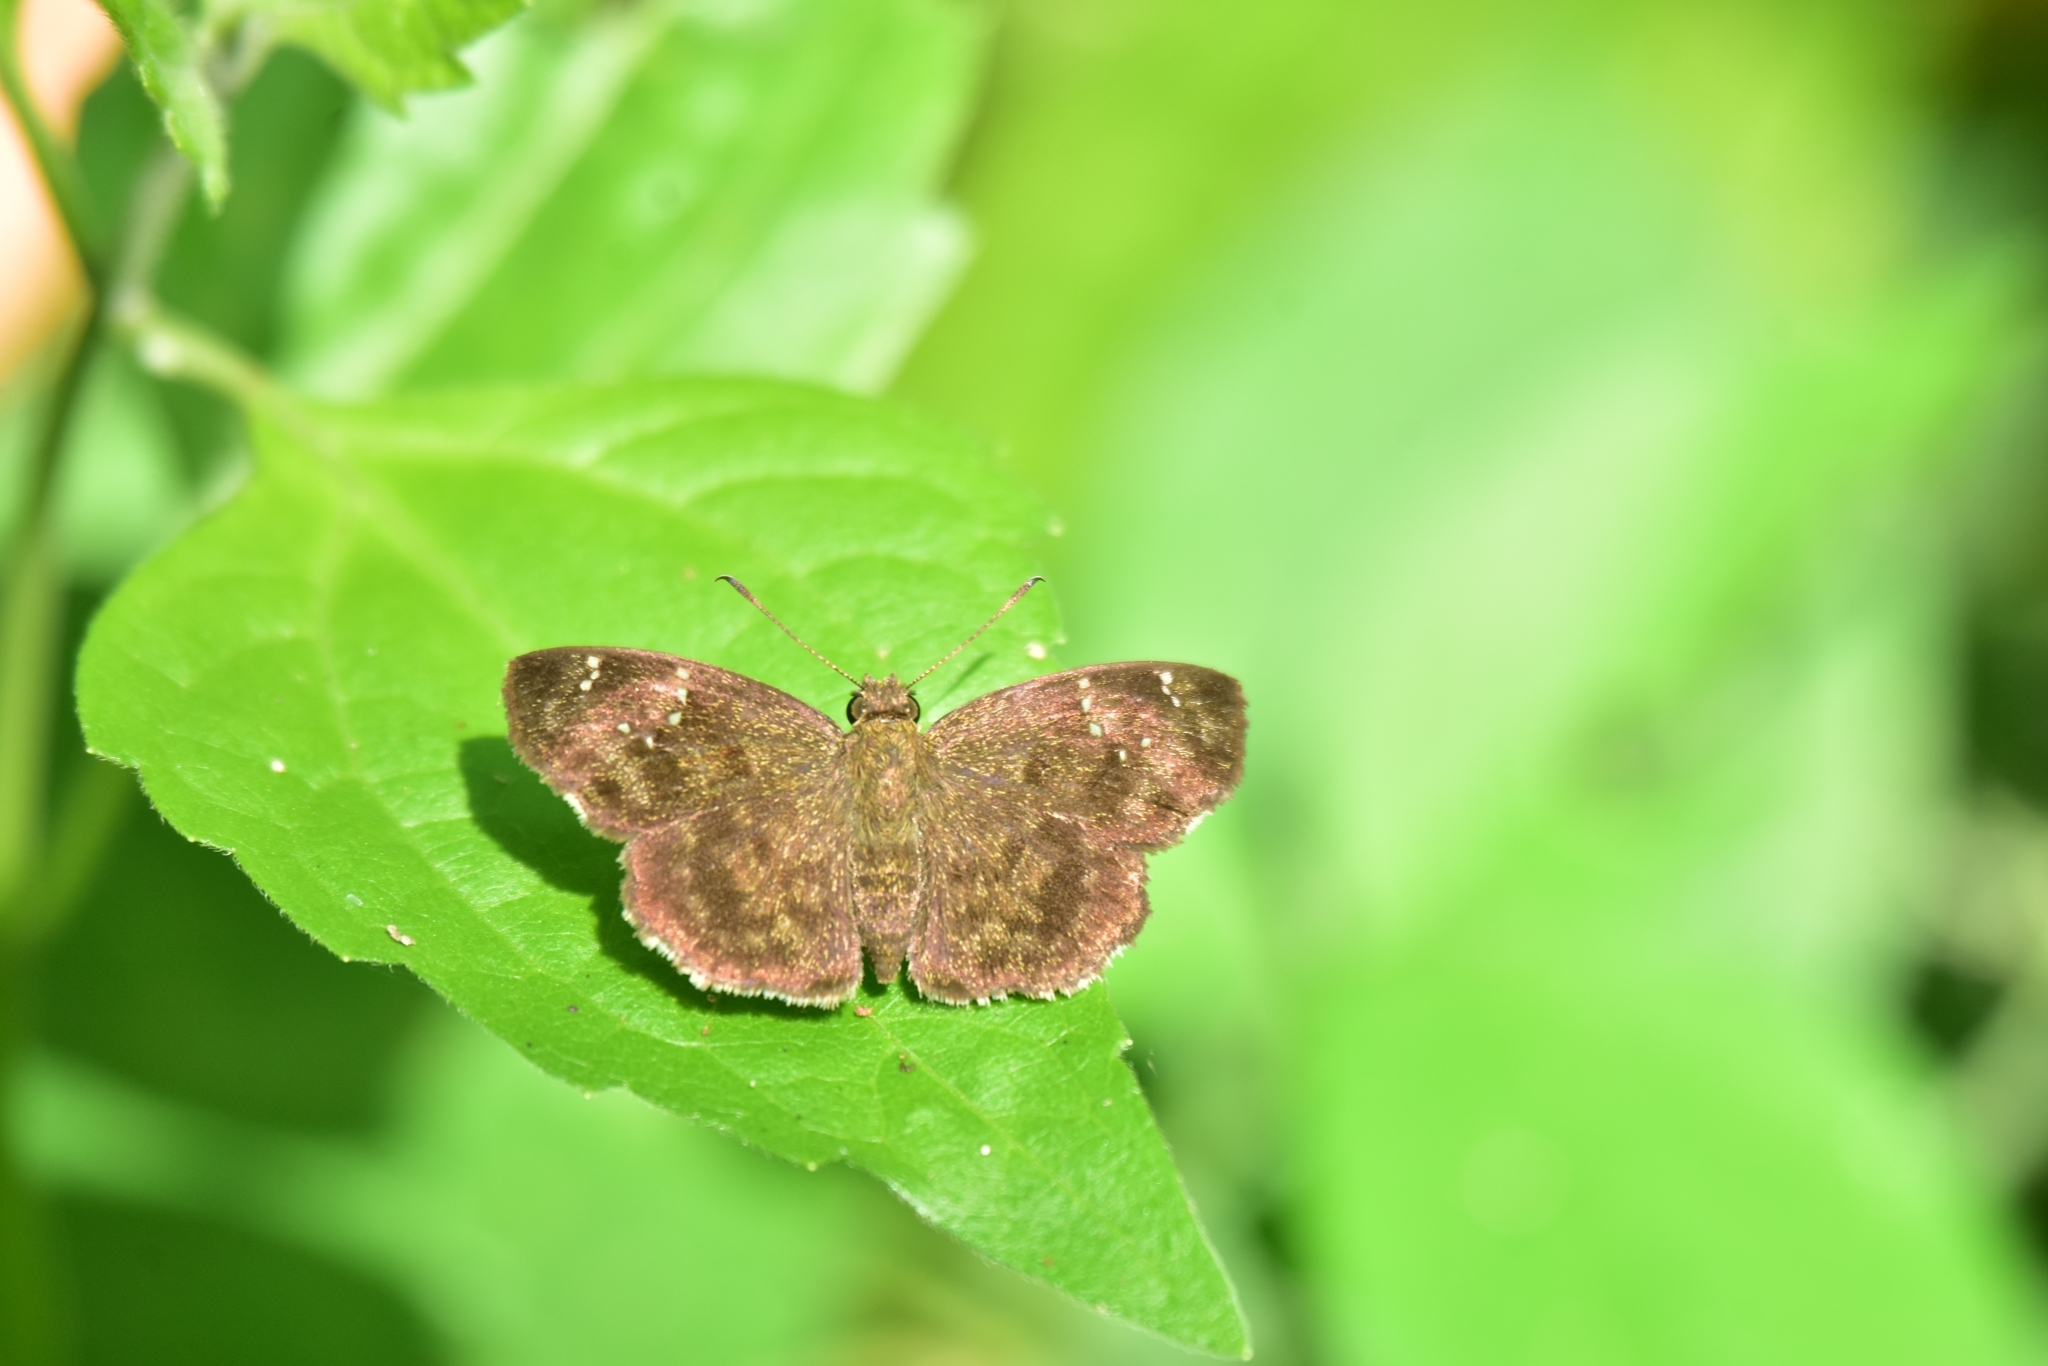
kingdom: Animalia
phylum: Arthropoda
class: Insecta
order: Lepidoptera
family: Hesperiidae
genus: Sarangesa
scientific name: Sarangesa dasahara
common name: Common small flat
